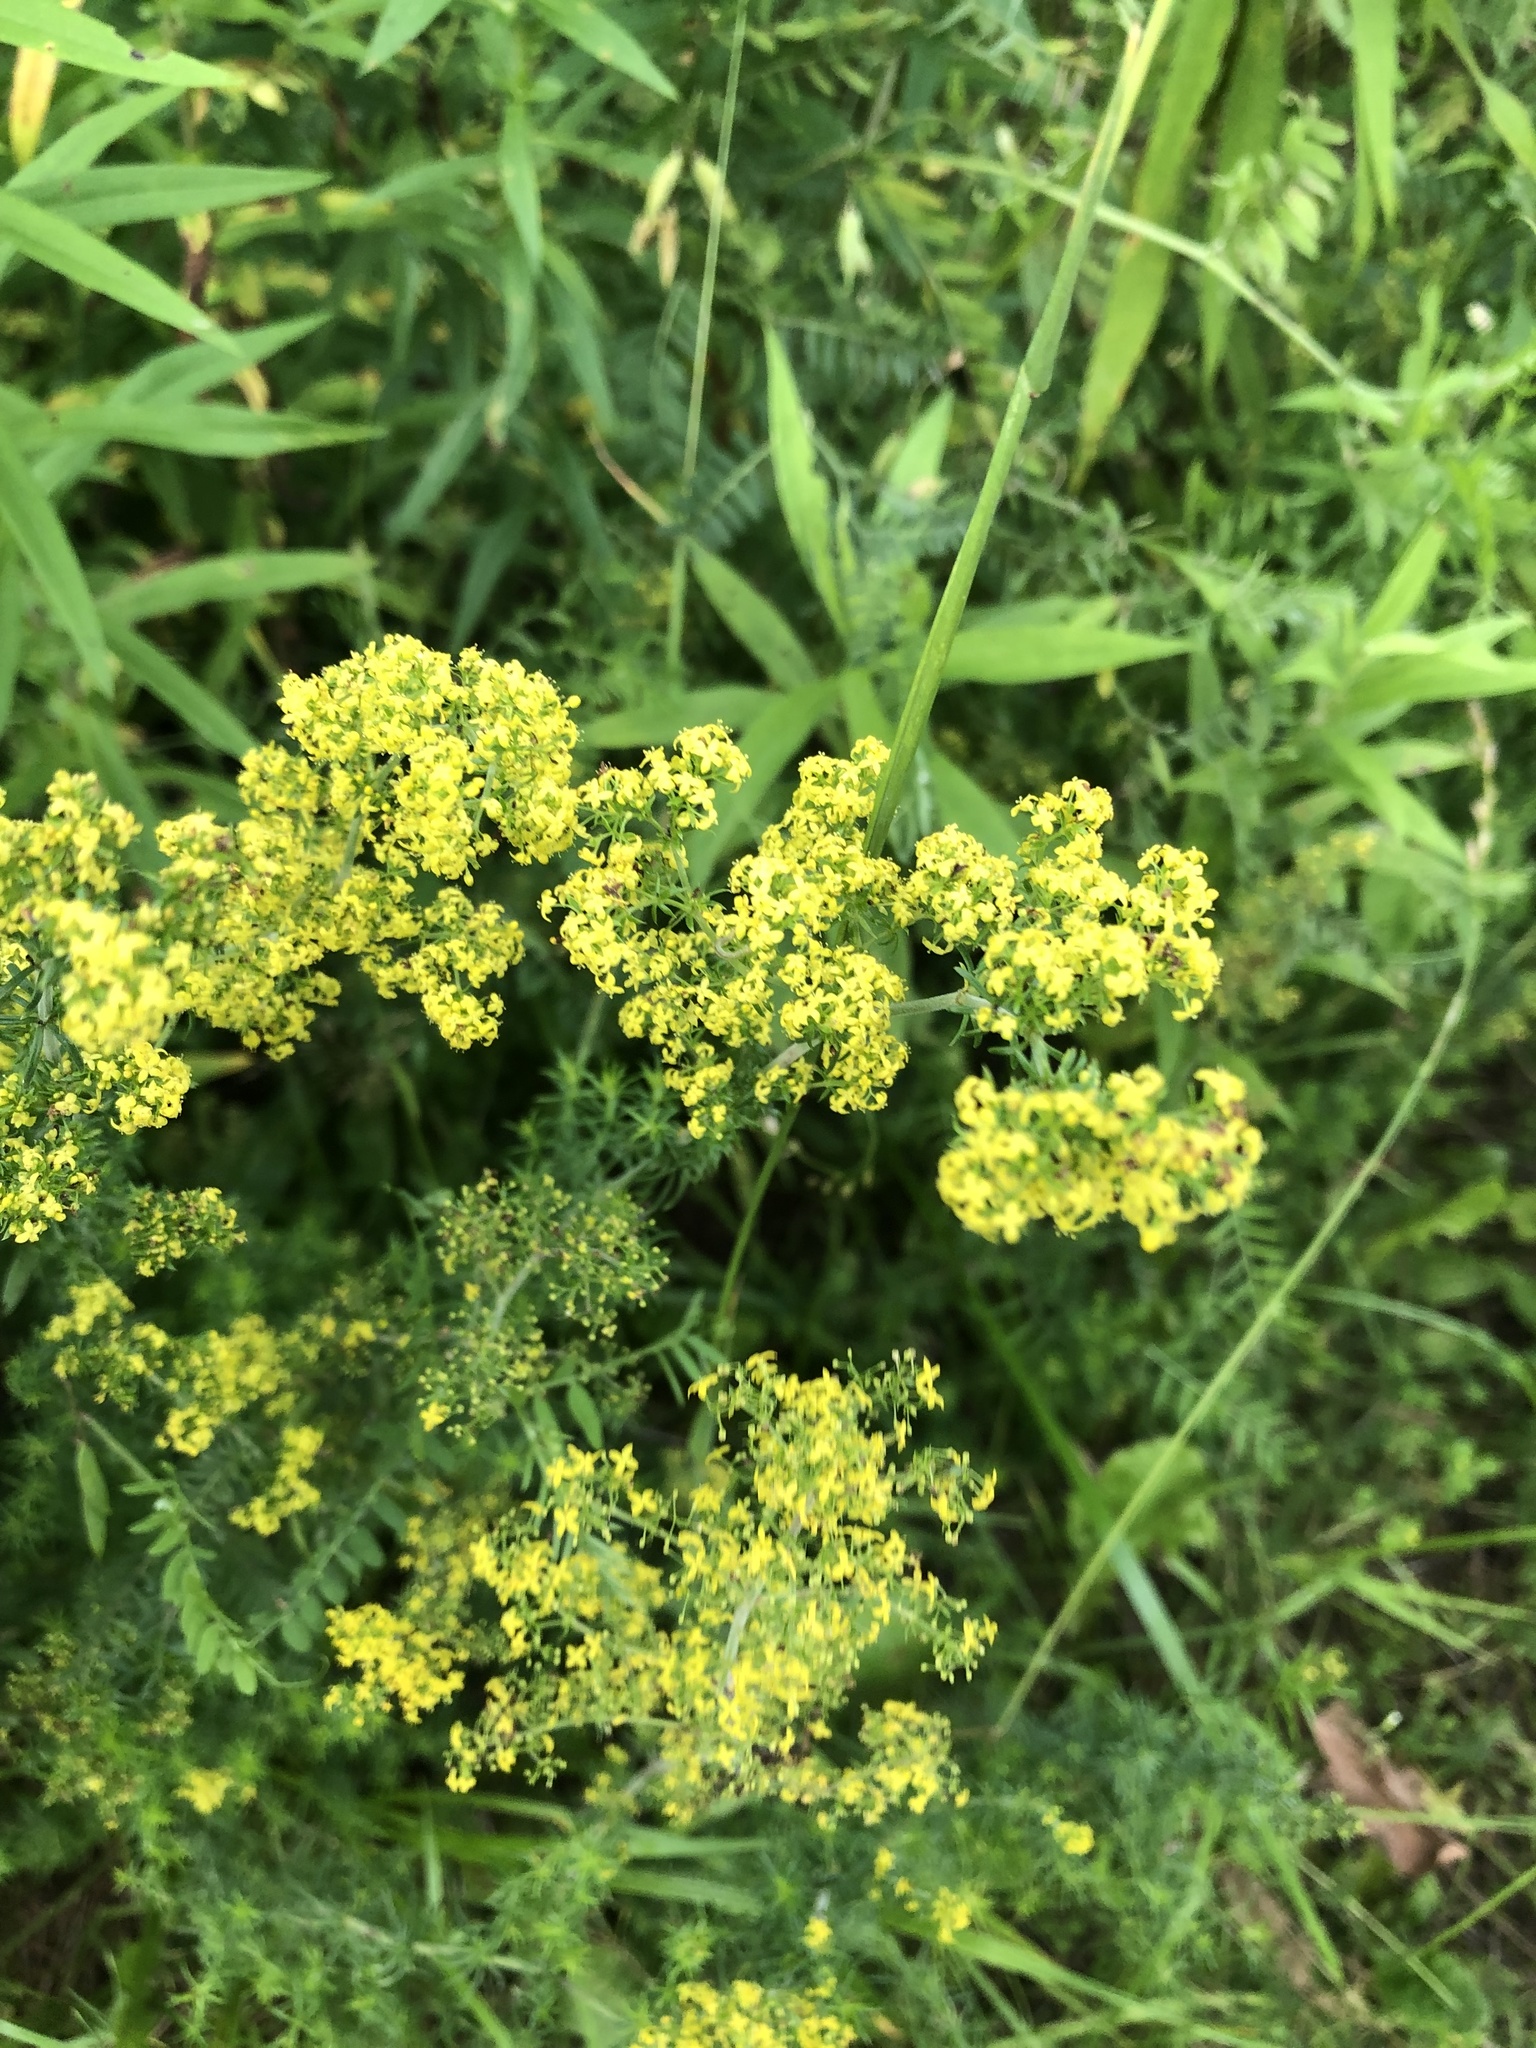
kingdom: Plantae
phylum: Tracheophyta
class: Magnoliopsida
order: Gentianales
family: Rubiaceae
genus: Galium
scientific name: Galium verum
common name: Lady's bedstraw
